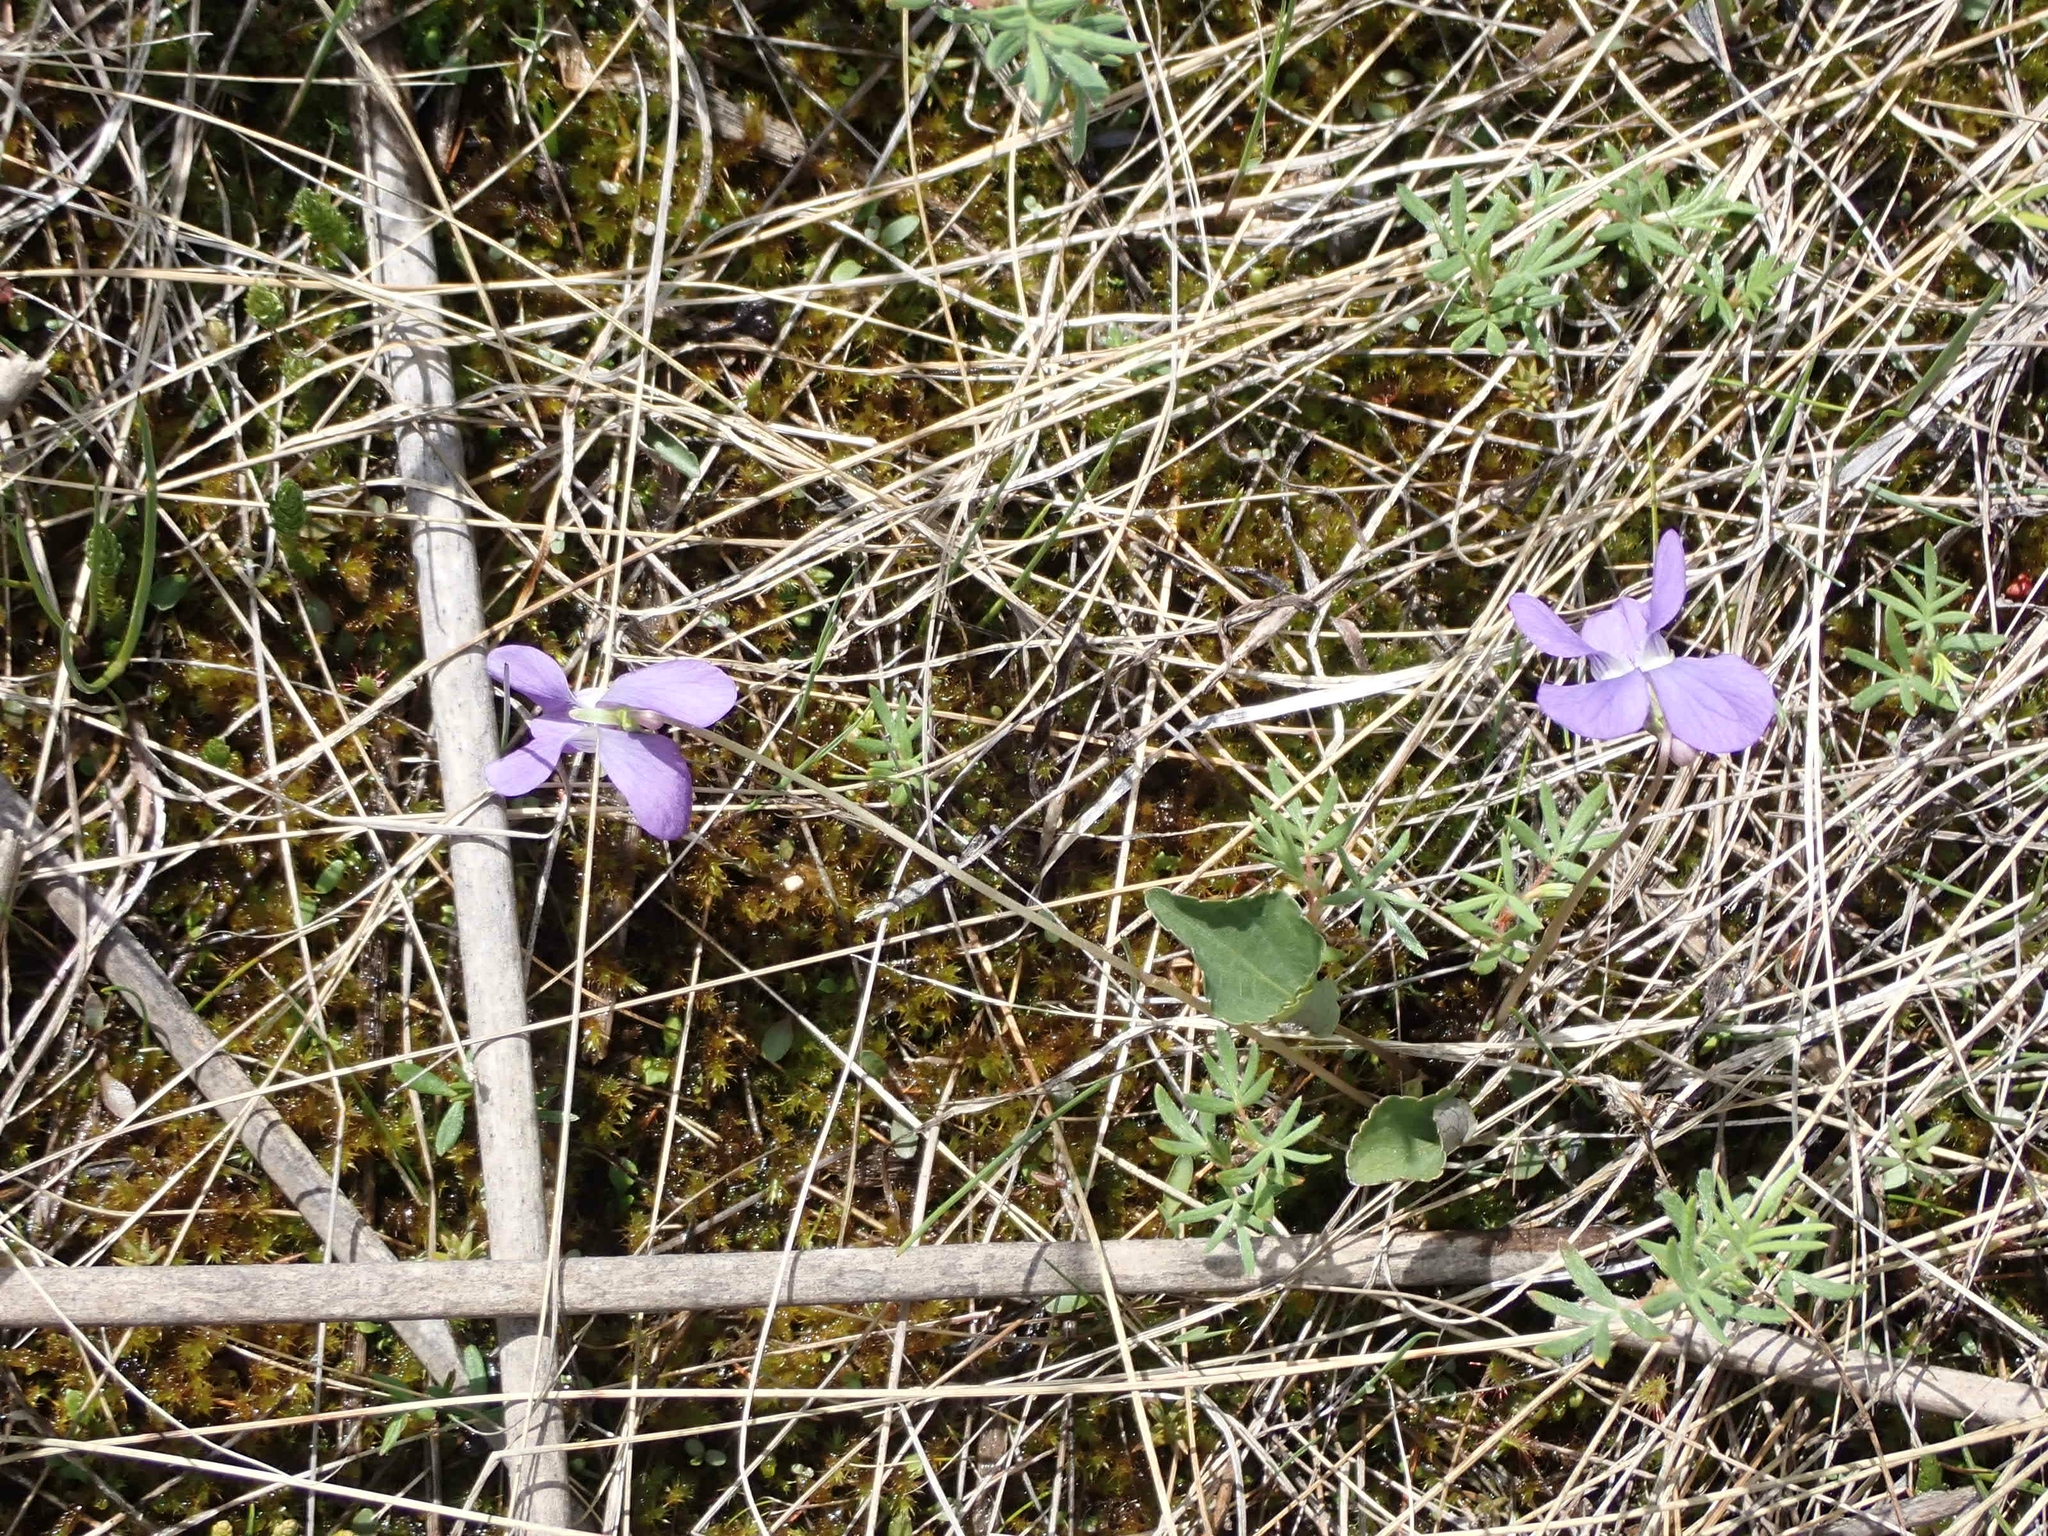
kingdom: Plantae
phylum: Tracheophyta
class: Magnoliopsida
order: Malpighiales
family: Violaceae
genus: Viola
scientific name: Viola nephrophylla
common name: Blue meadow violet
